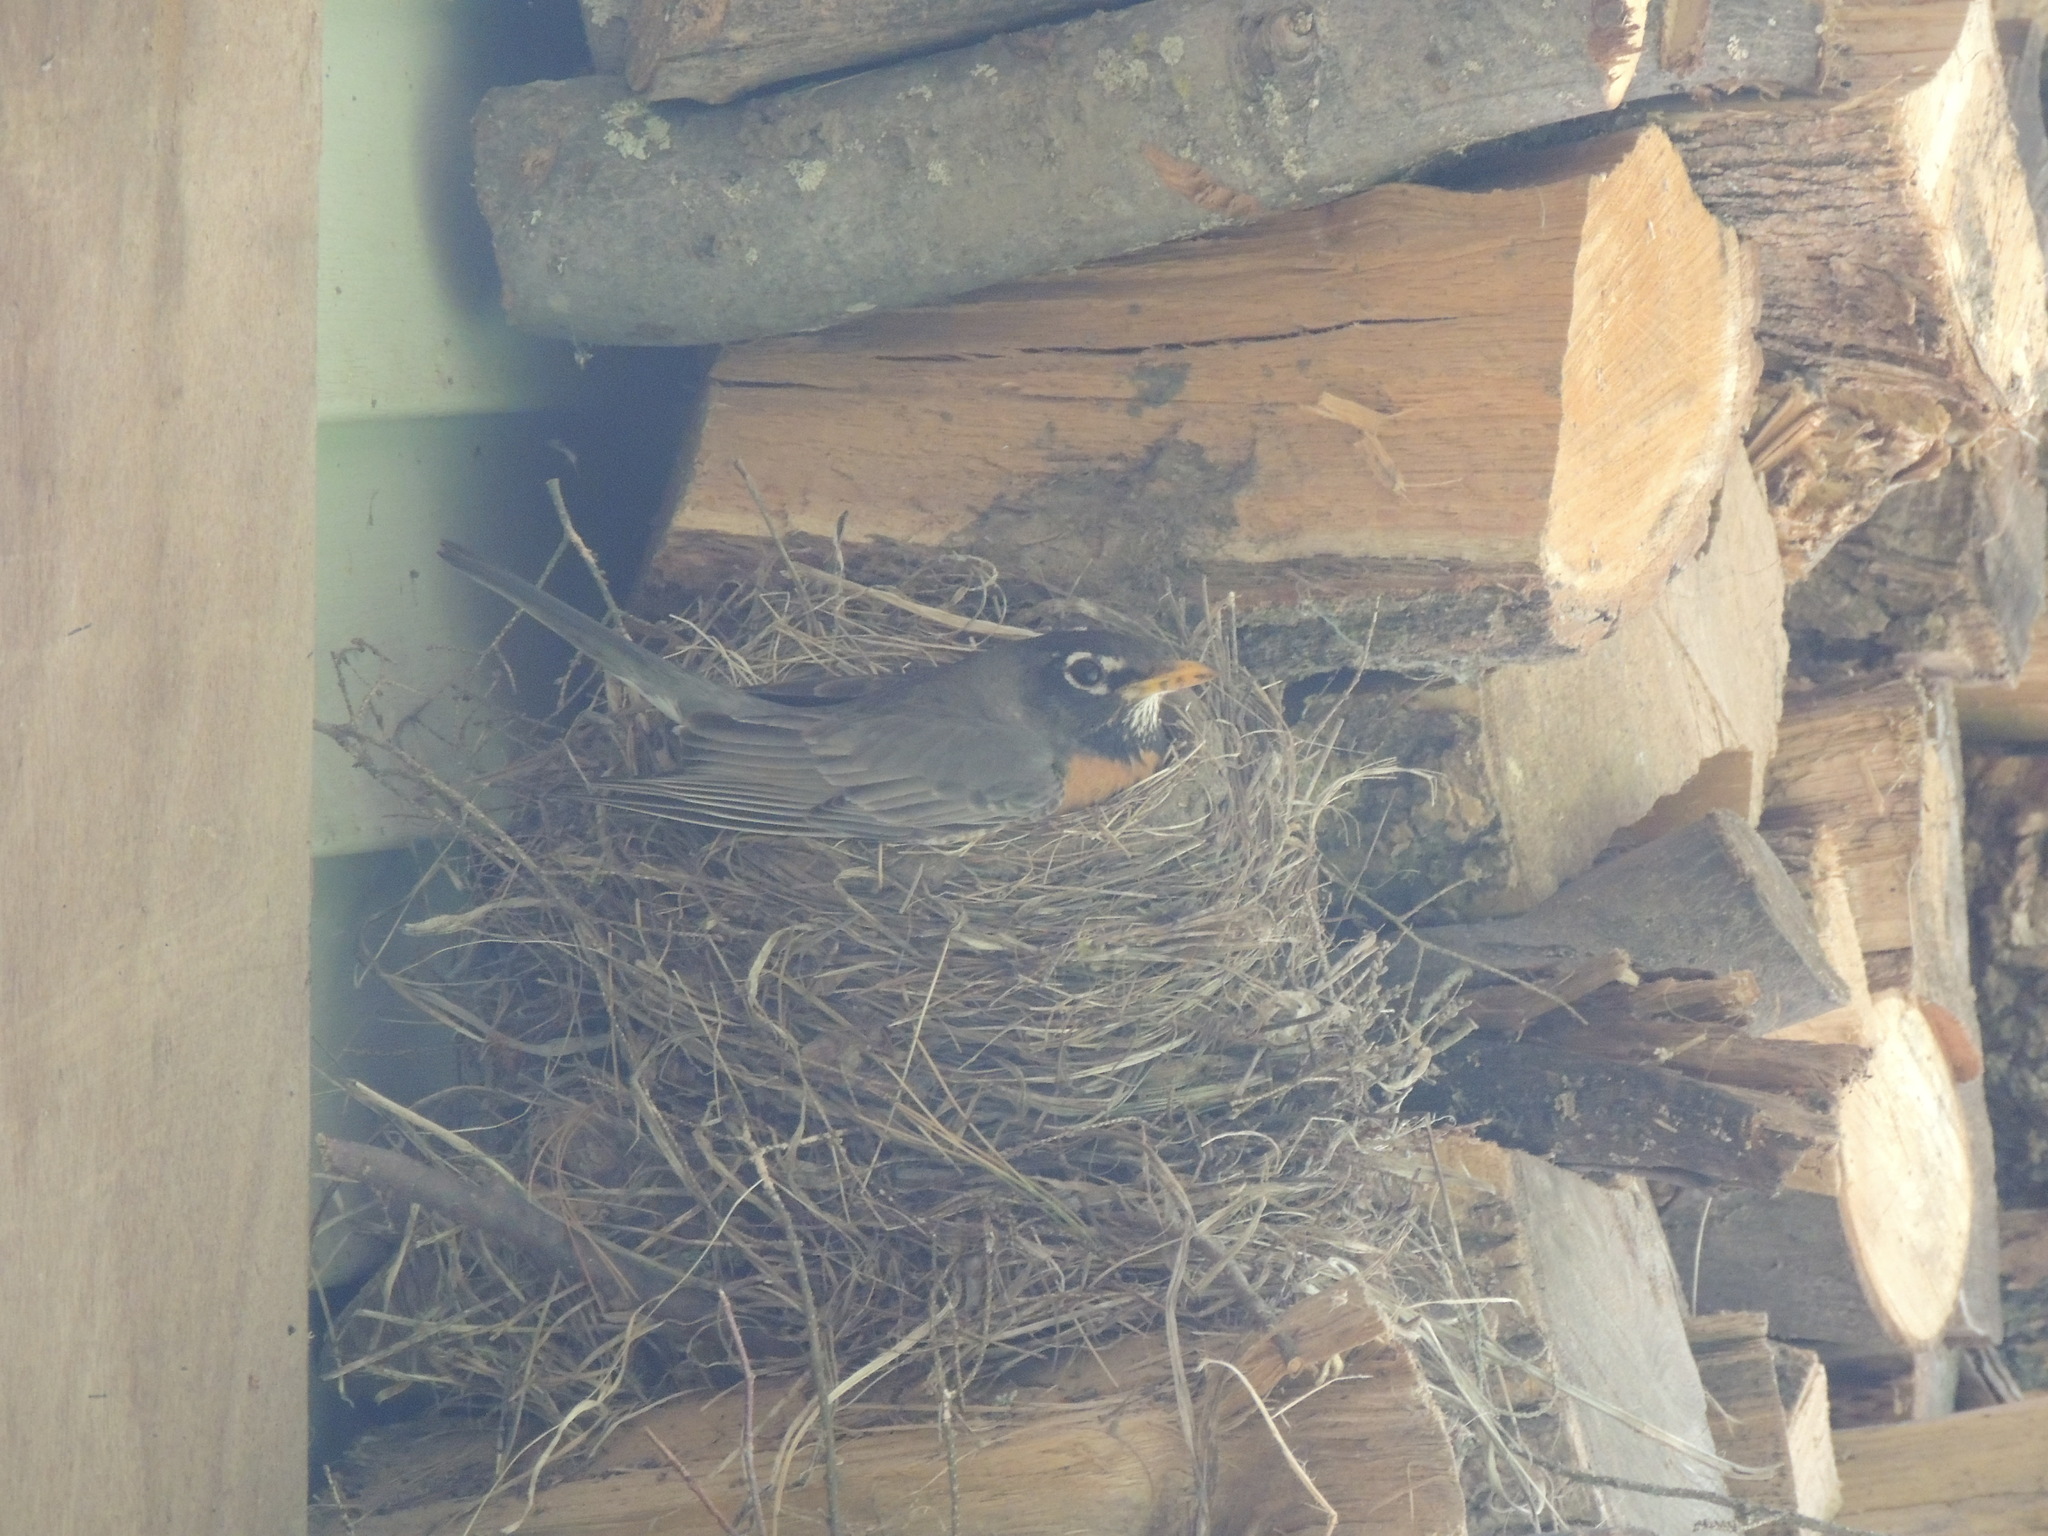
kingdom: Animalia
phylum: Chordata
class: Aves
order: Passeriformes
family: Turdidae
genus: Turdus
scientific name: Turdus migratorius
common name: American robin
